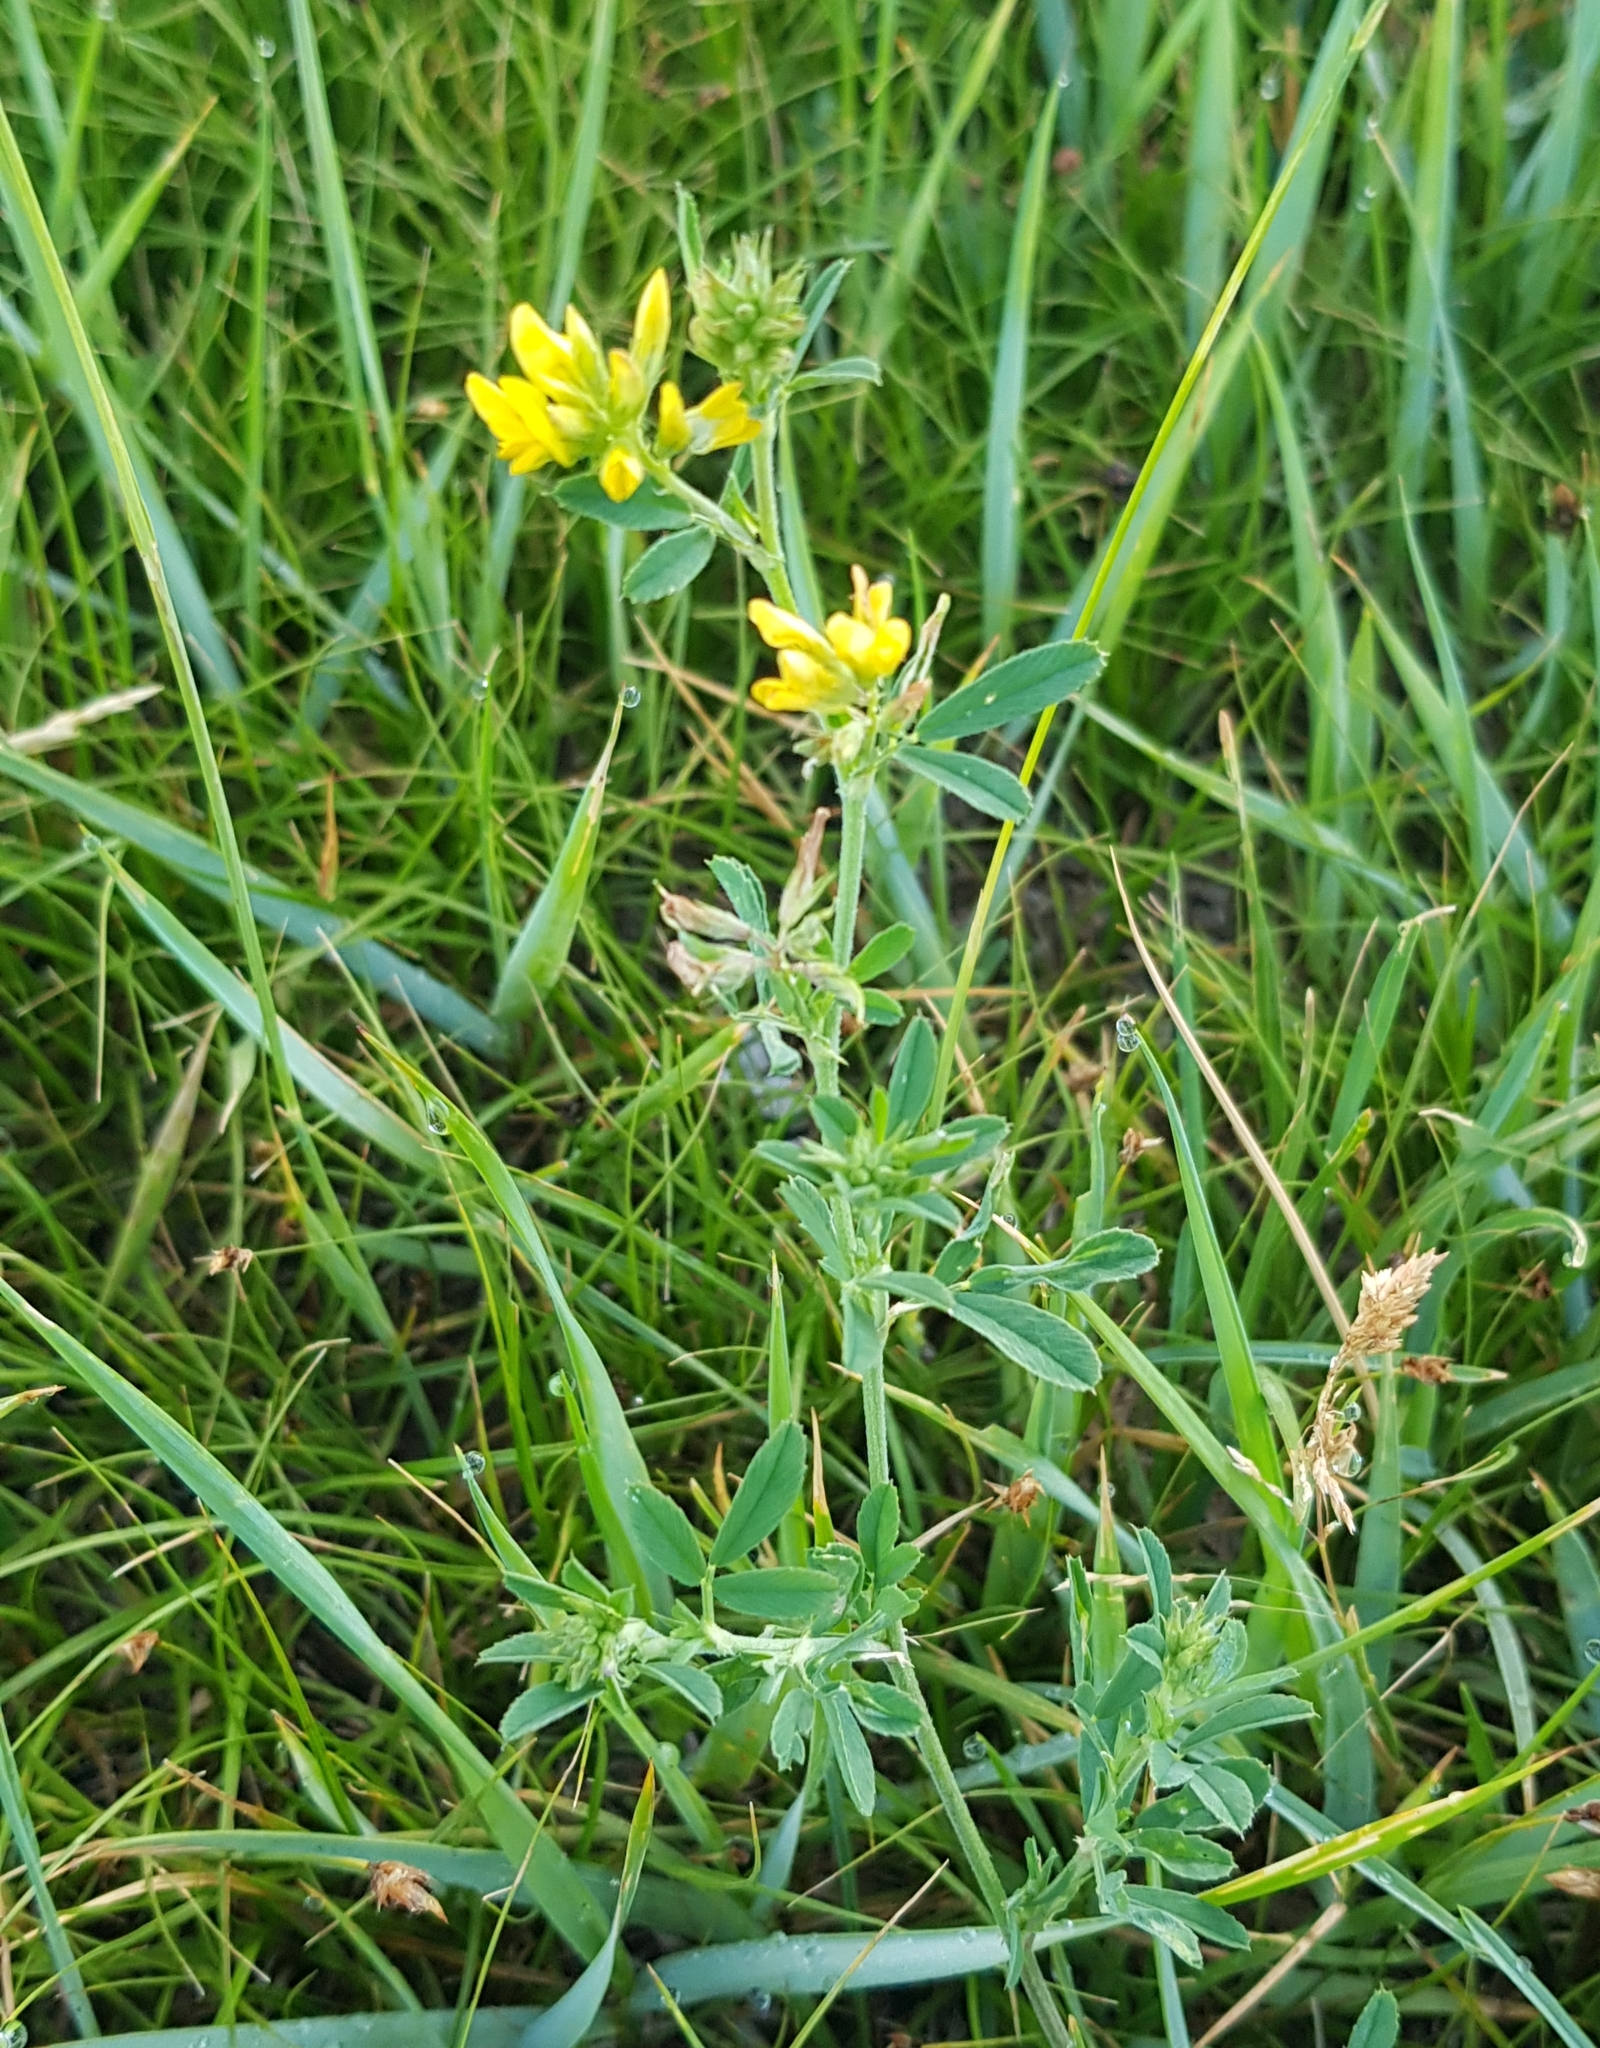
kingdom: Plantae
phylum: Tracheophyta
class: Magnoliopsida
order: Fabales
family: Fabaceae
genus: Medicago
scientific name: Medicago falcata
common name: Sickle medick
